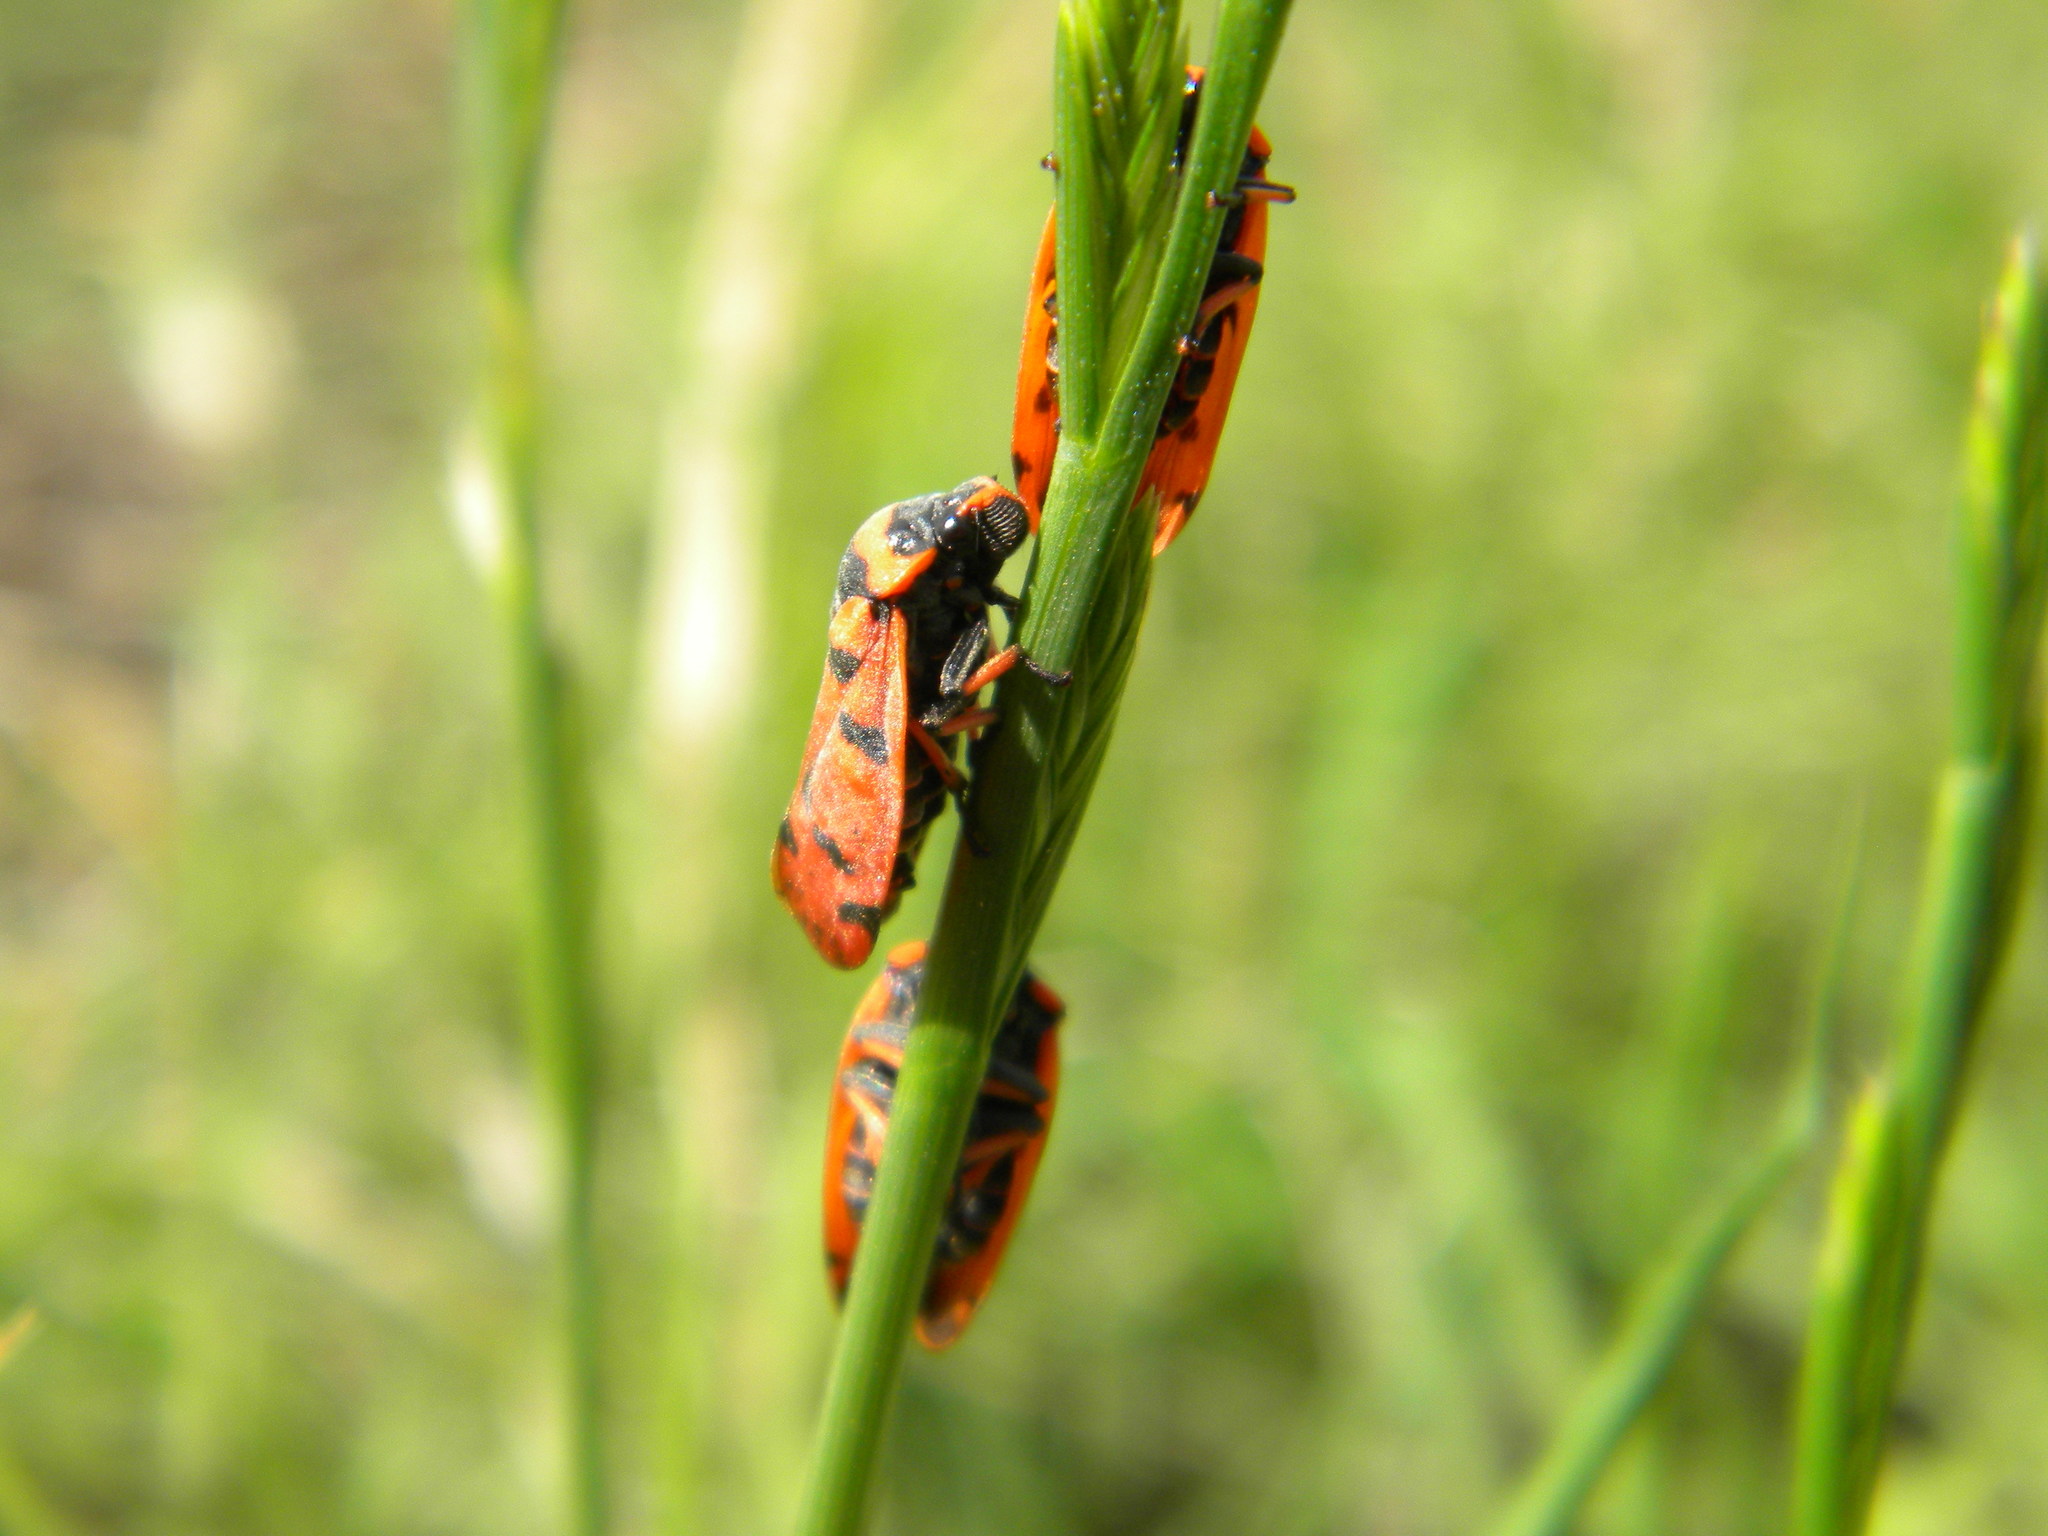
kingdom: Animalia
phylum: Arthropoda
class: Insecta
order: Hemiptera
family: Cercopidae
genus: Locris
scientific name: Locris arithmetica
